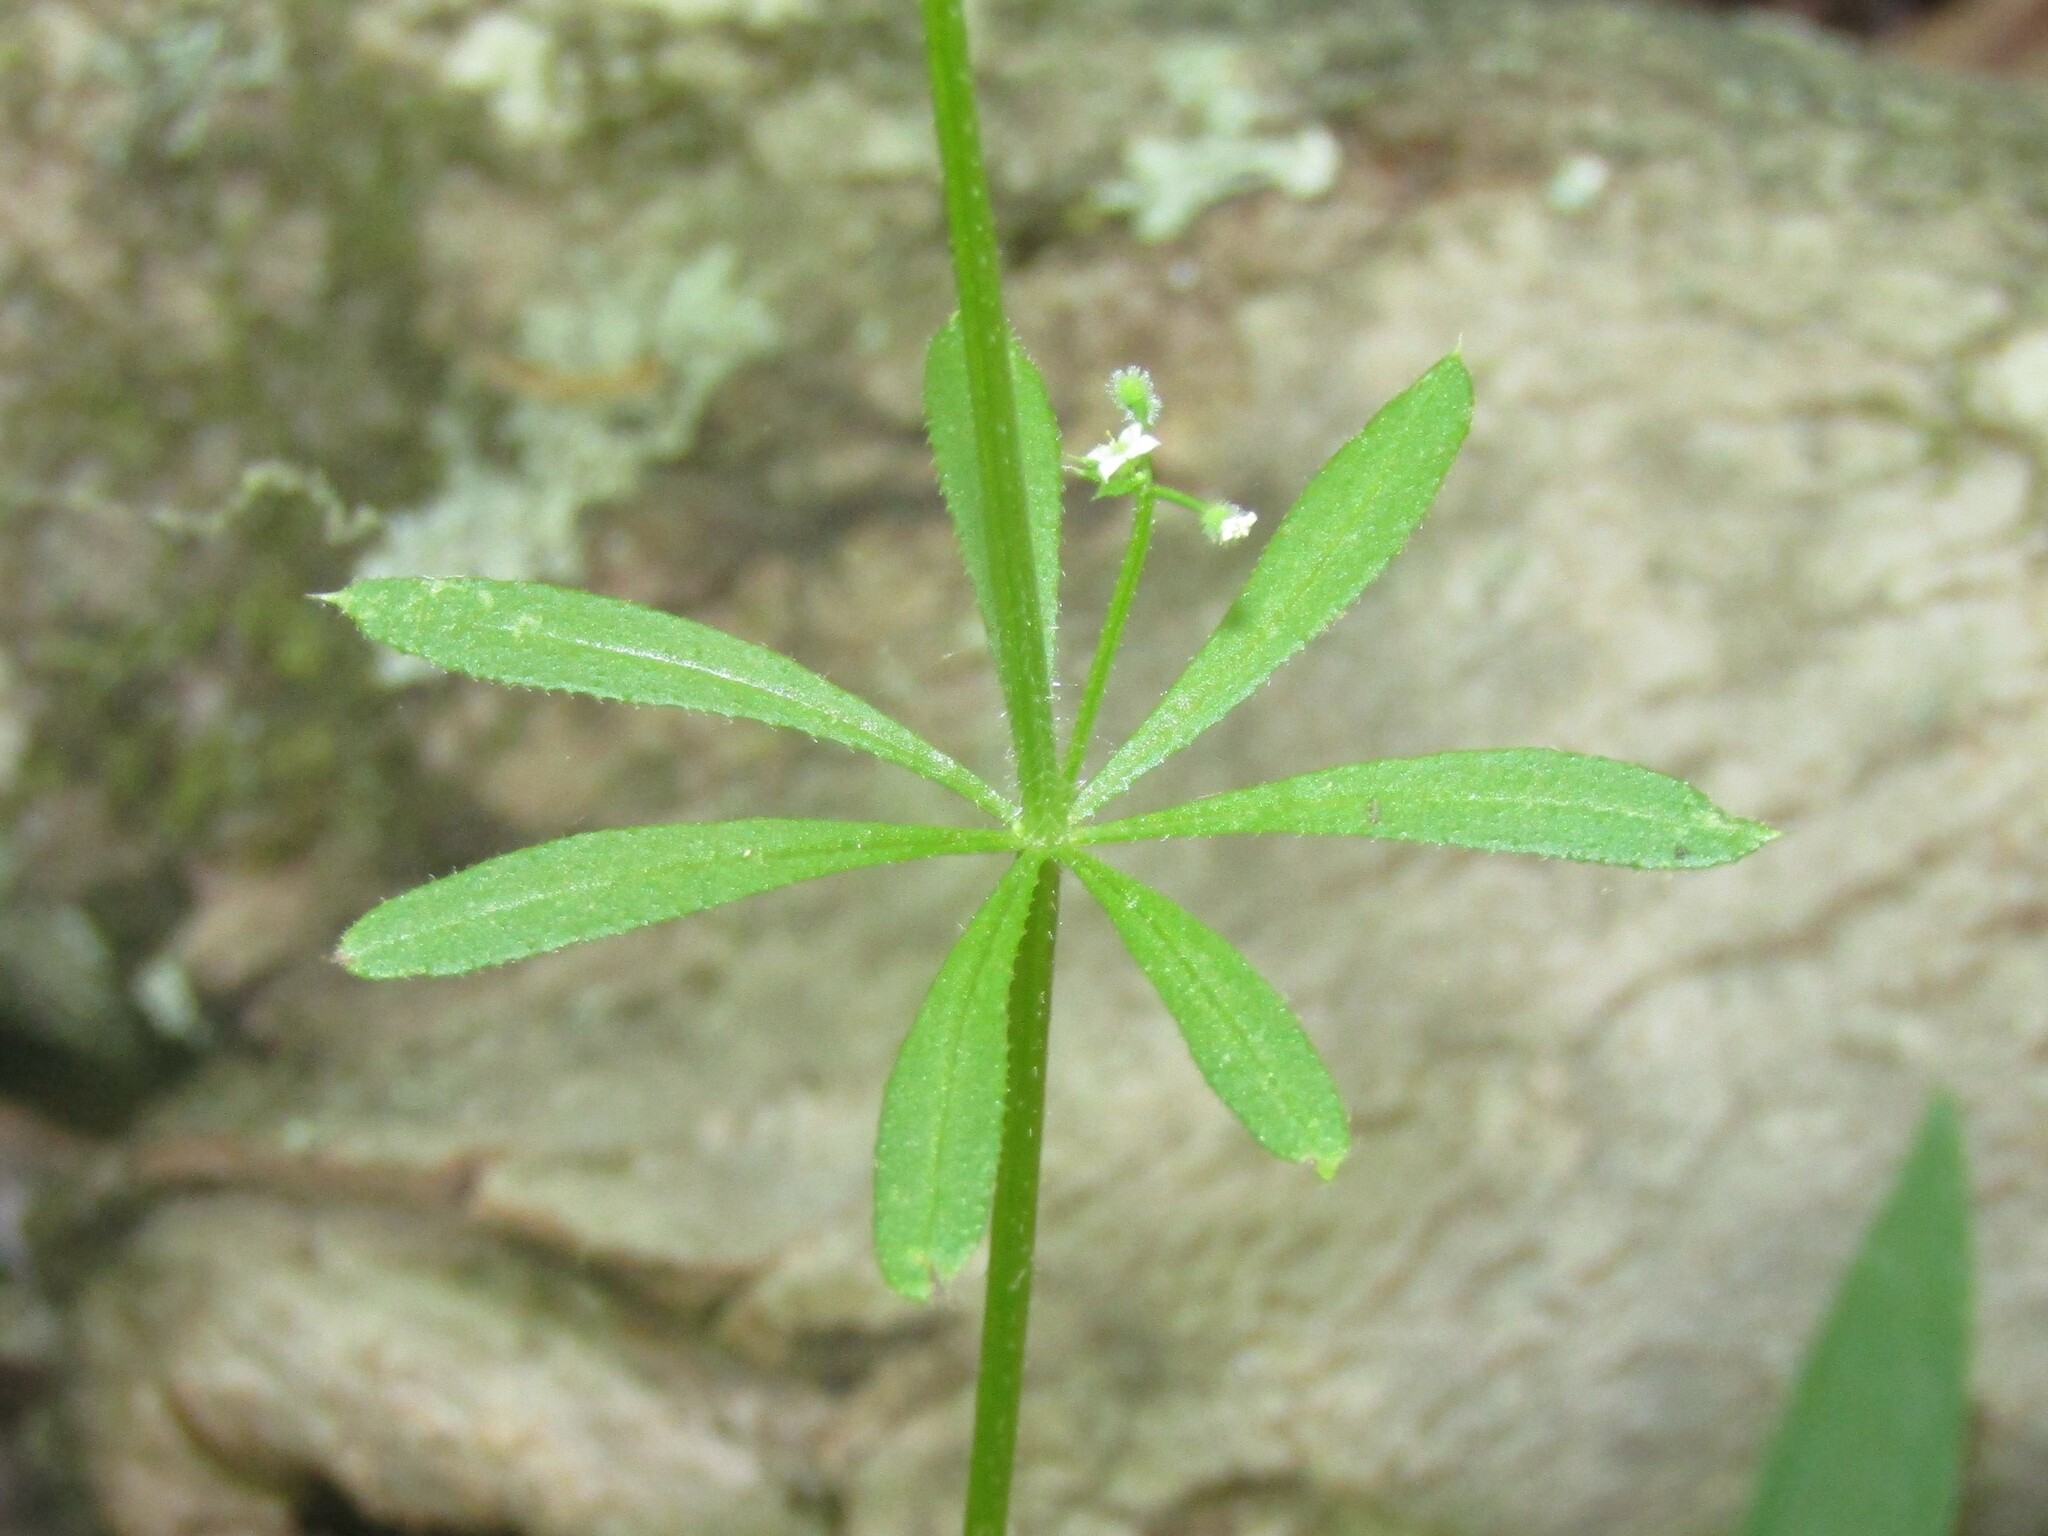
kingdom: Plantae
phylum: Tracheophyta
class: Magnoliopsida
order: Gentianales
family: Rubiaceae
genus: Galium
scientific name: Galium aparine
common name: Cleavers
